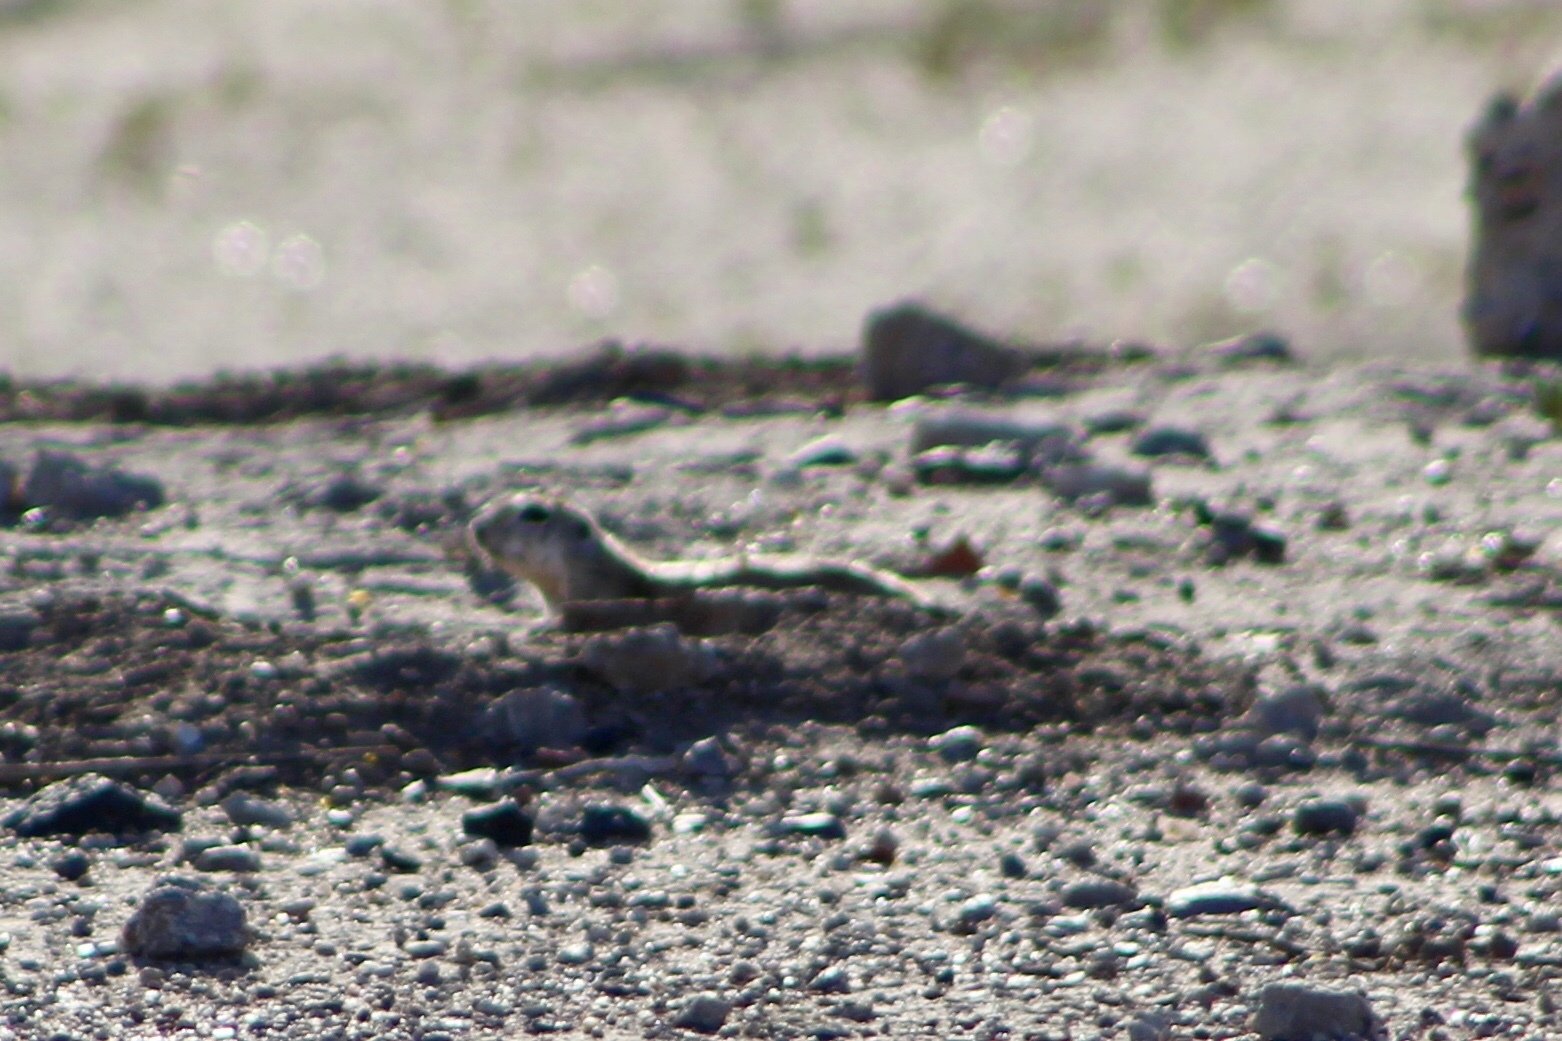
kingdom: Animalia
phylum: Chordata
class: Mammalia
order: Rodentia
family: Sciuridae
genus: Xerospermophilus
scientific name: Xerospermophilus tereticaudus
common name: Round-tailed ground squirrel
